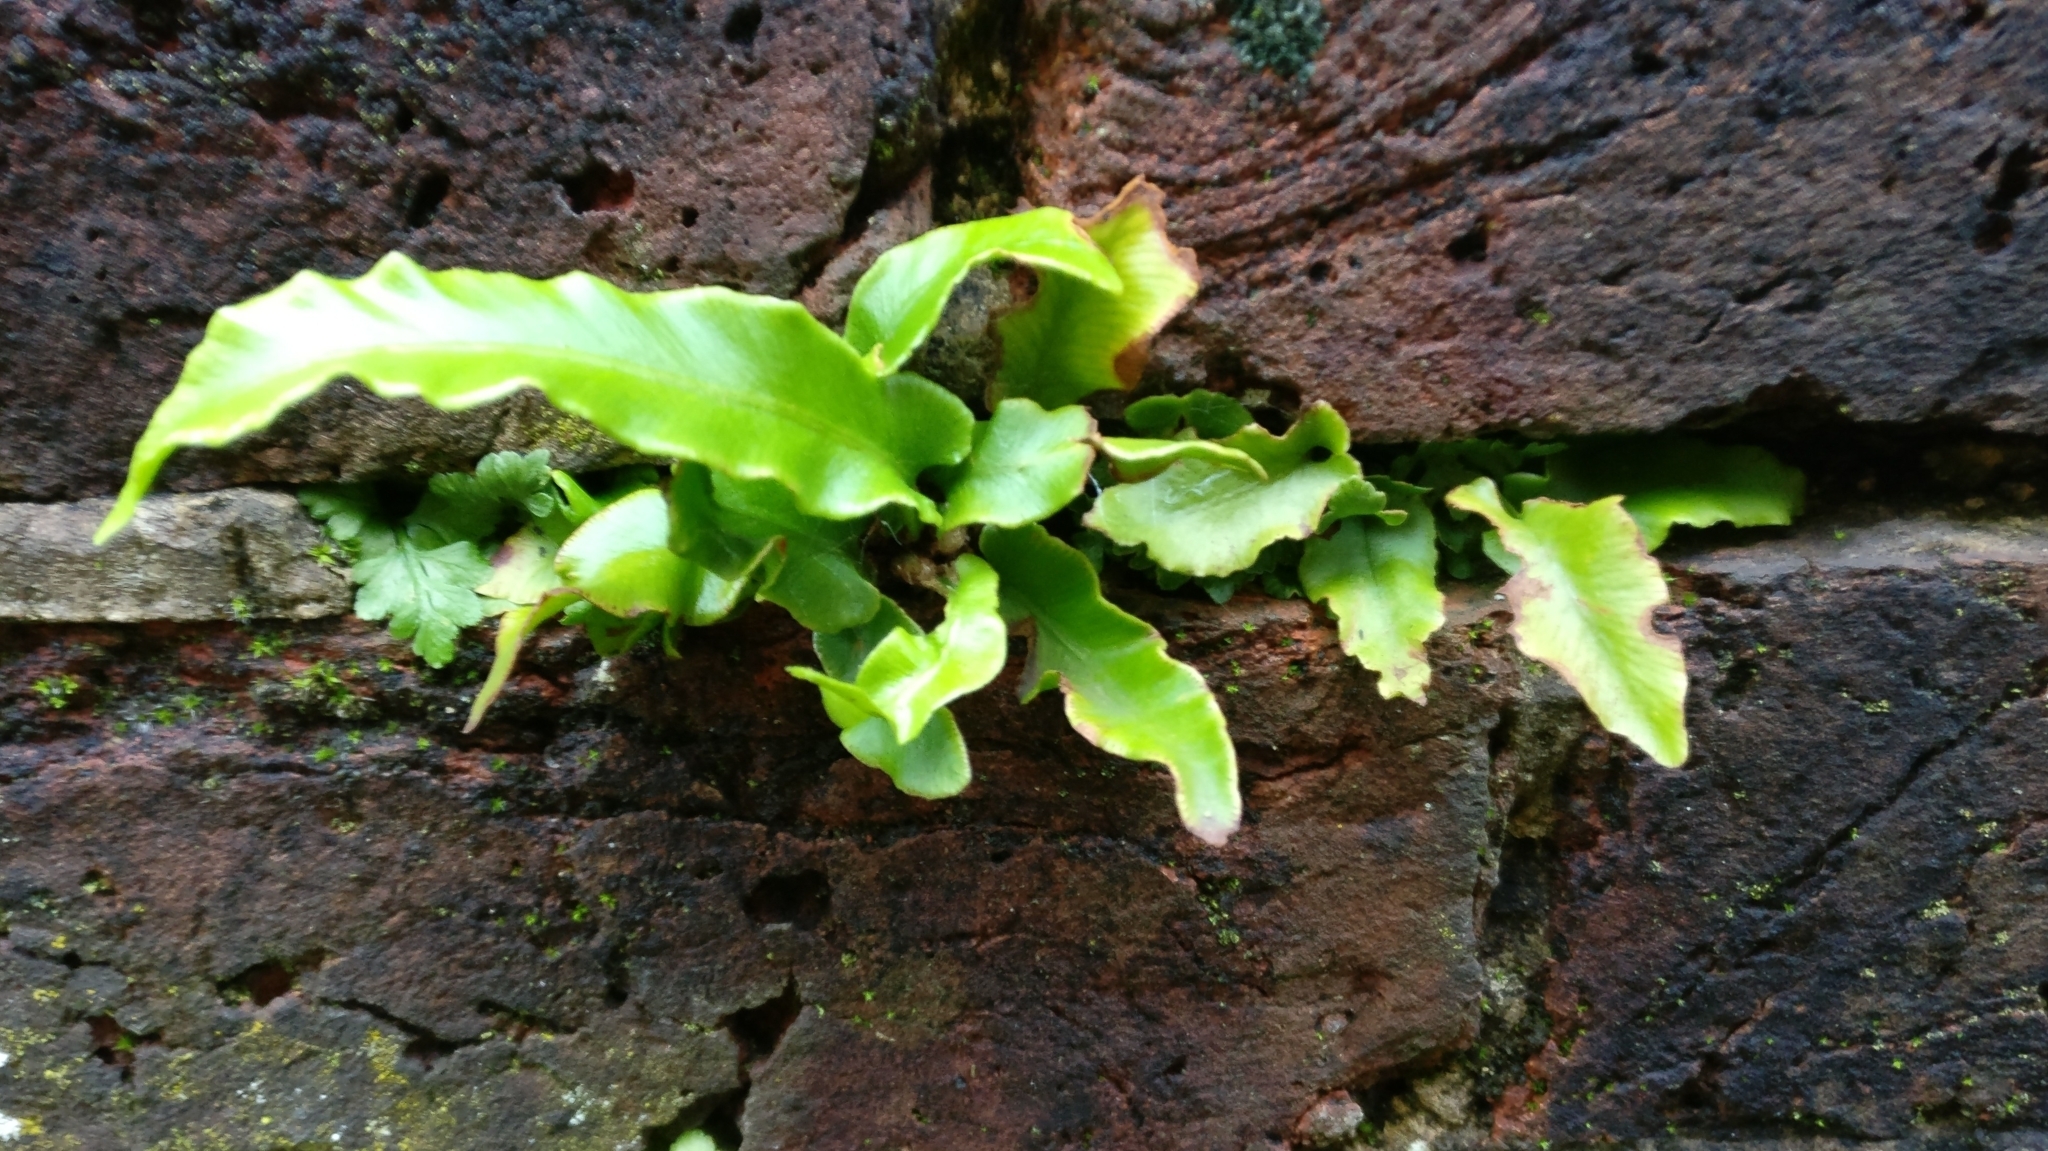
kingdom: Plantae
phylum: Tracheophyta
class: Polypodiopsida
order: Polypodiales
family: Aspleniaceae
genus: Asplenium
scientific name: Asplenium scolopendrium
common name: Hart's-tongue fern
